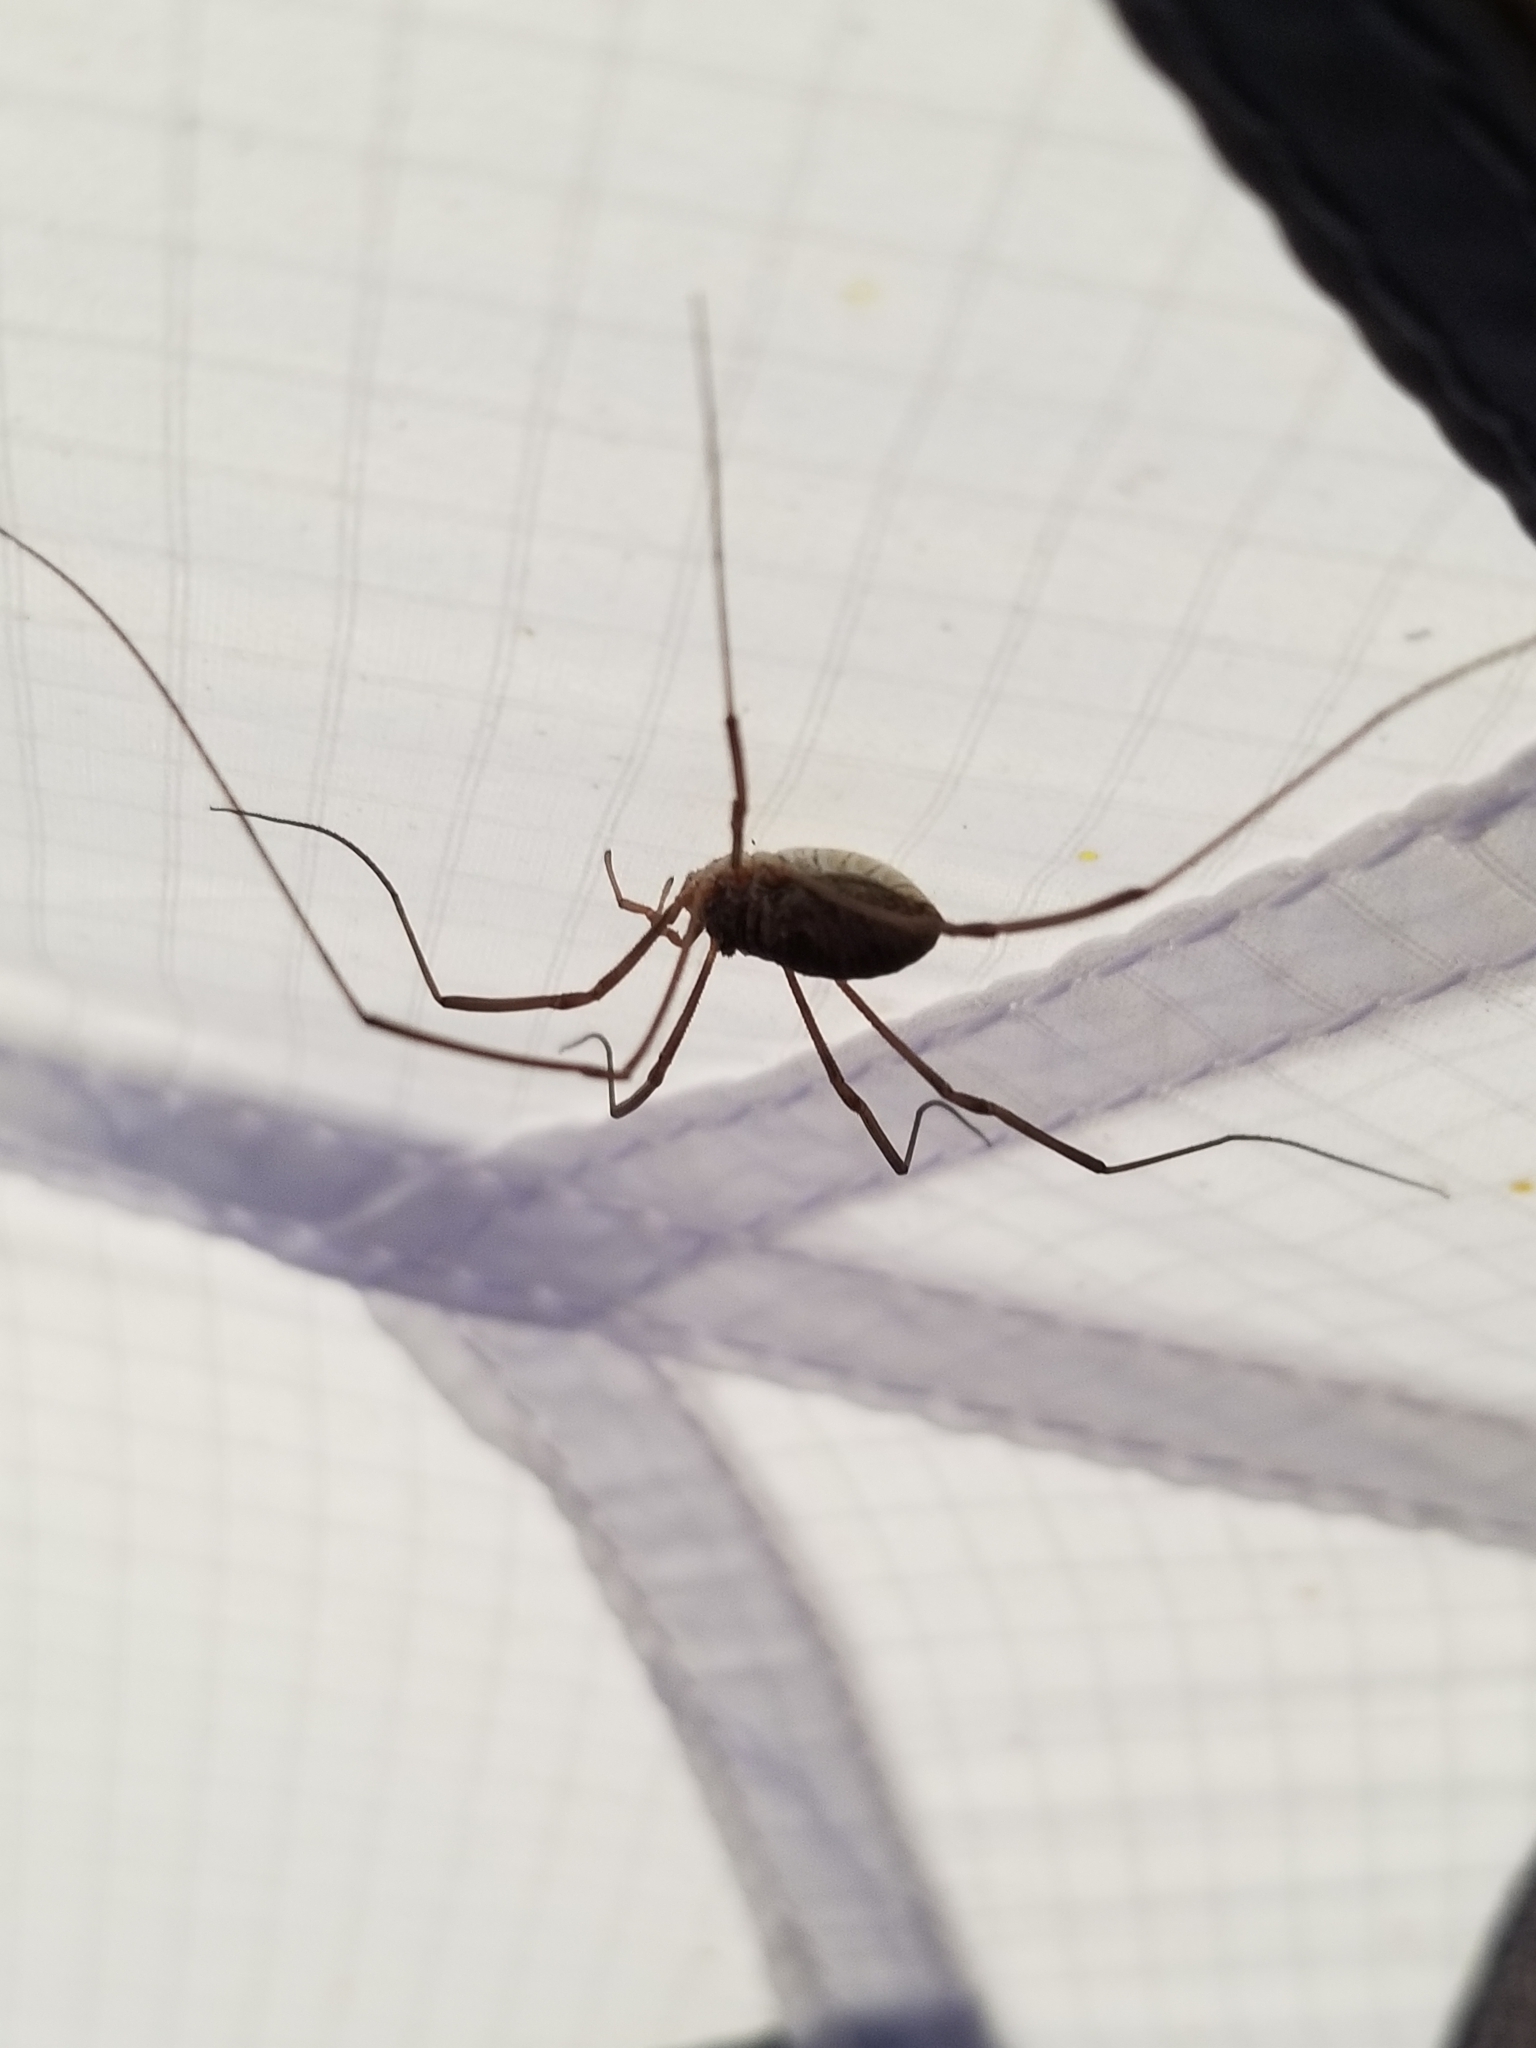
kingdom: Animalia
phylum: Arthropoda
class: Arachnida
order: Opiliones
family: Phalangiidae
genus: Phalangium
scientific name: Phalangium opilio
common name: Daddy longleg
